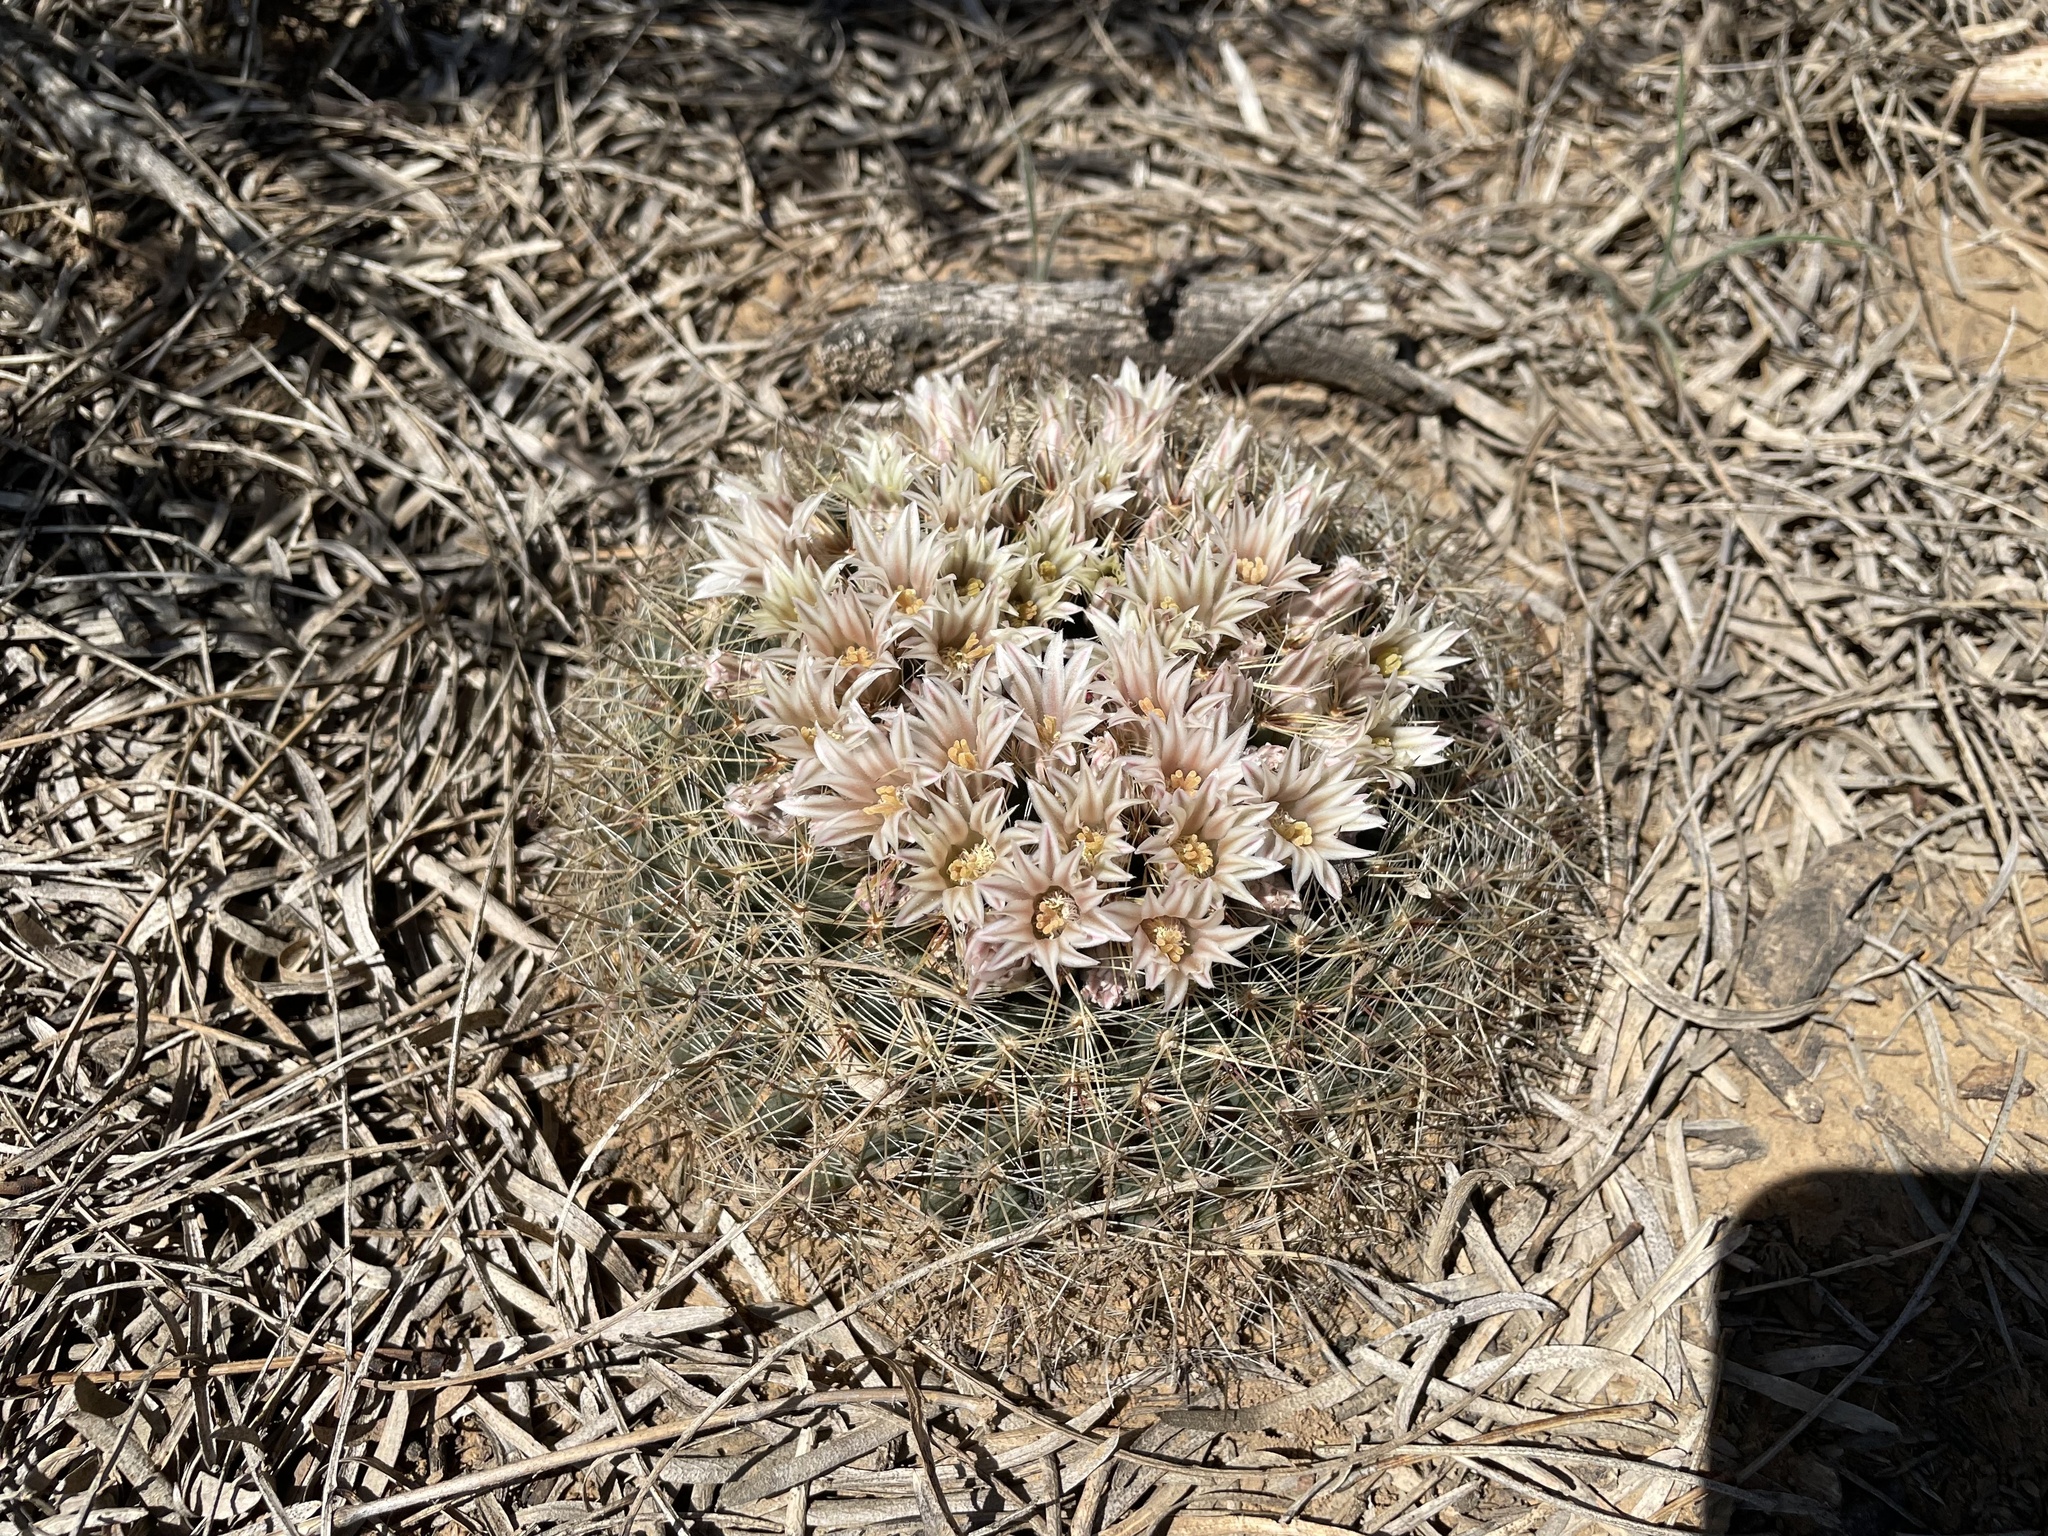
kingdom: Plantae
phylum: Tracheophyta
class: Magnoliopsida
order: Caryophyllales
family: Cactaceae
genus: Mammillaria
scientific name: Mammillaria heyderi
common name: Little nipple cactus
